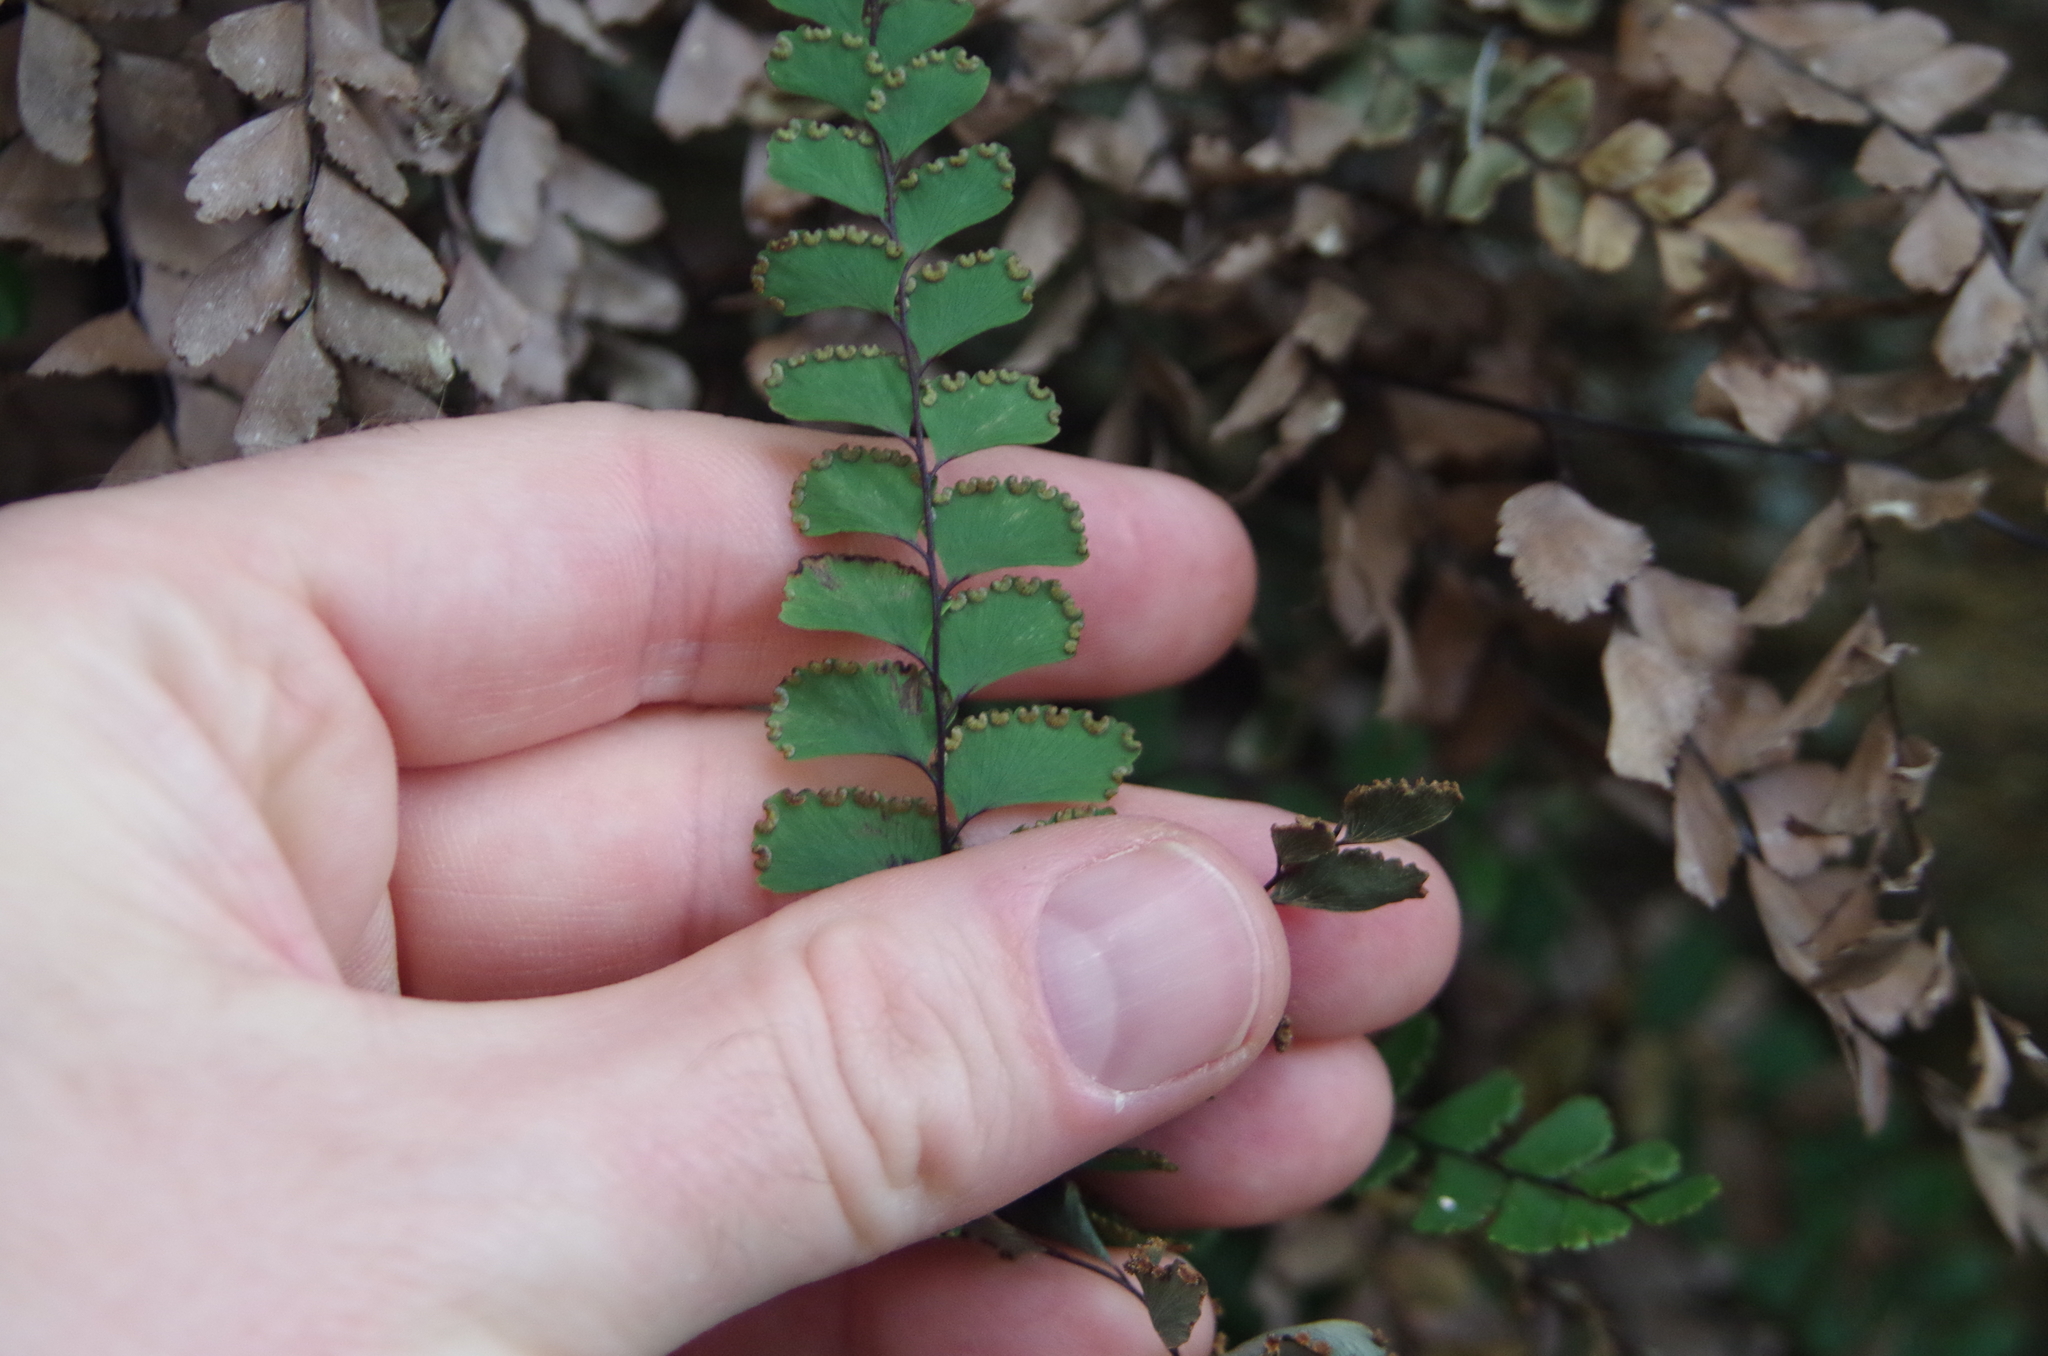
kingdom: Plantae
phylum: Tracheophyta
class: Polypodiopsida
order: Polypodiales
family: Pteridaceae
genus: Adiantum
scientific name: Adiantum cunninghamii
